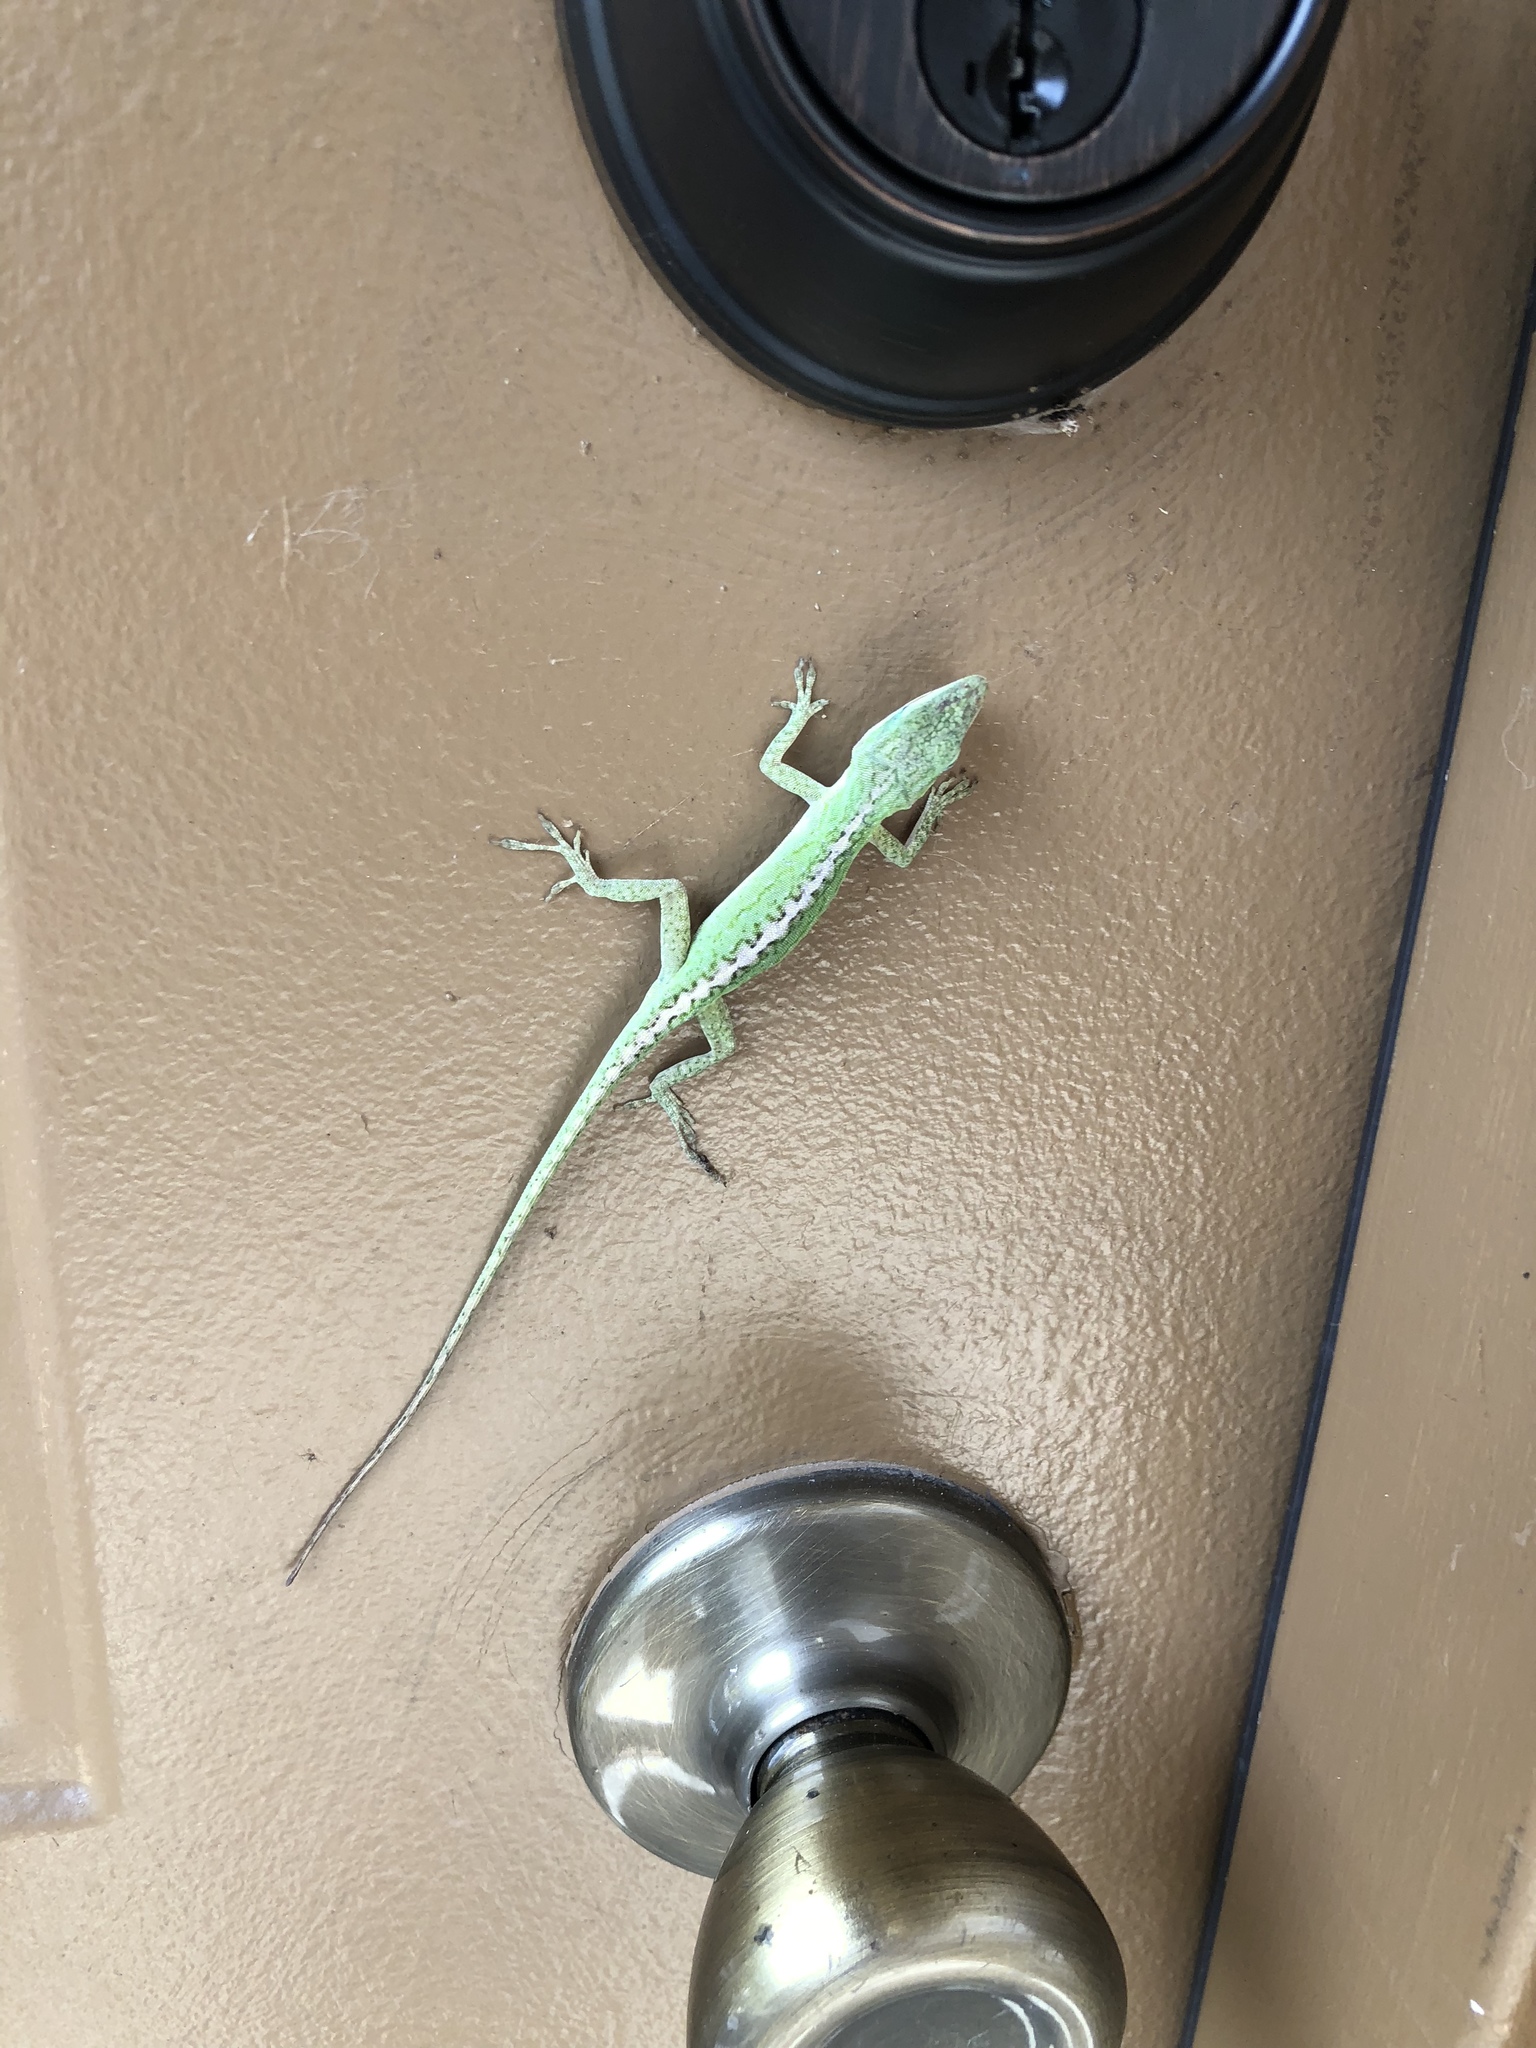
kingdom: Animalia
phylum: Chordata
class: Squamata
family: Dactyloidae
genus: Anolis
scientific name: Anolis carolinensis
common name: Green anole
